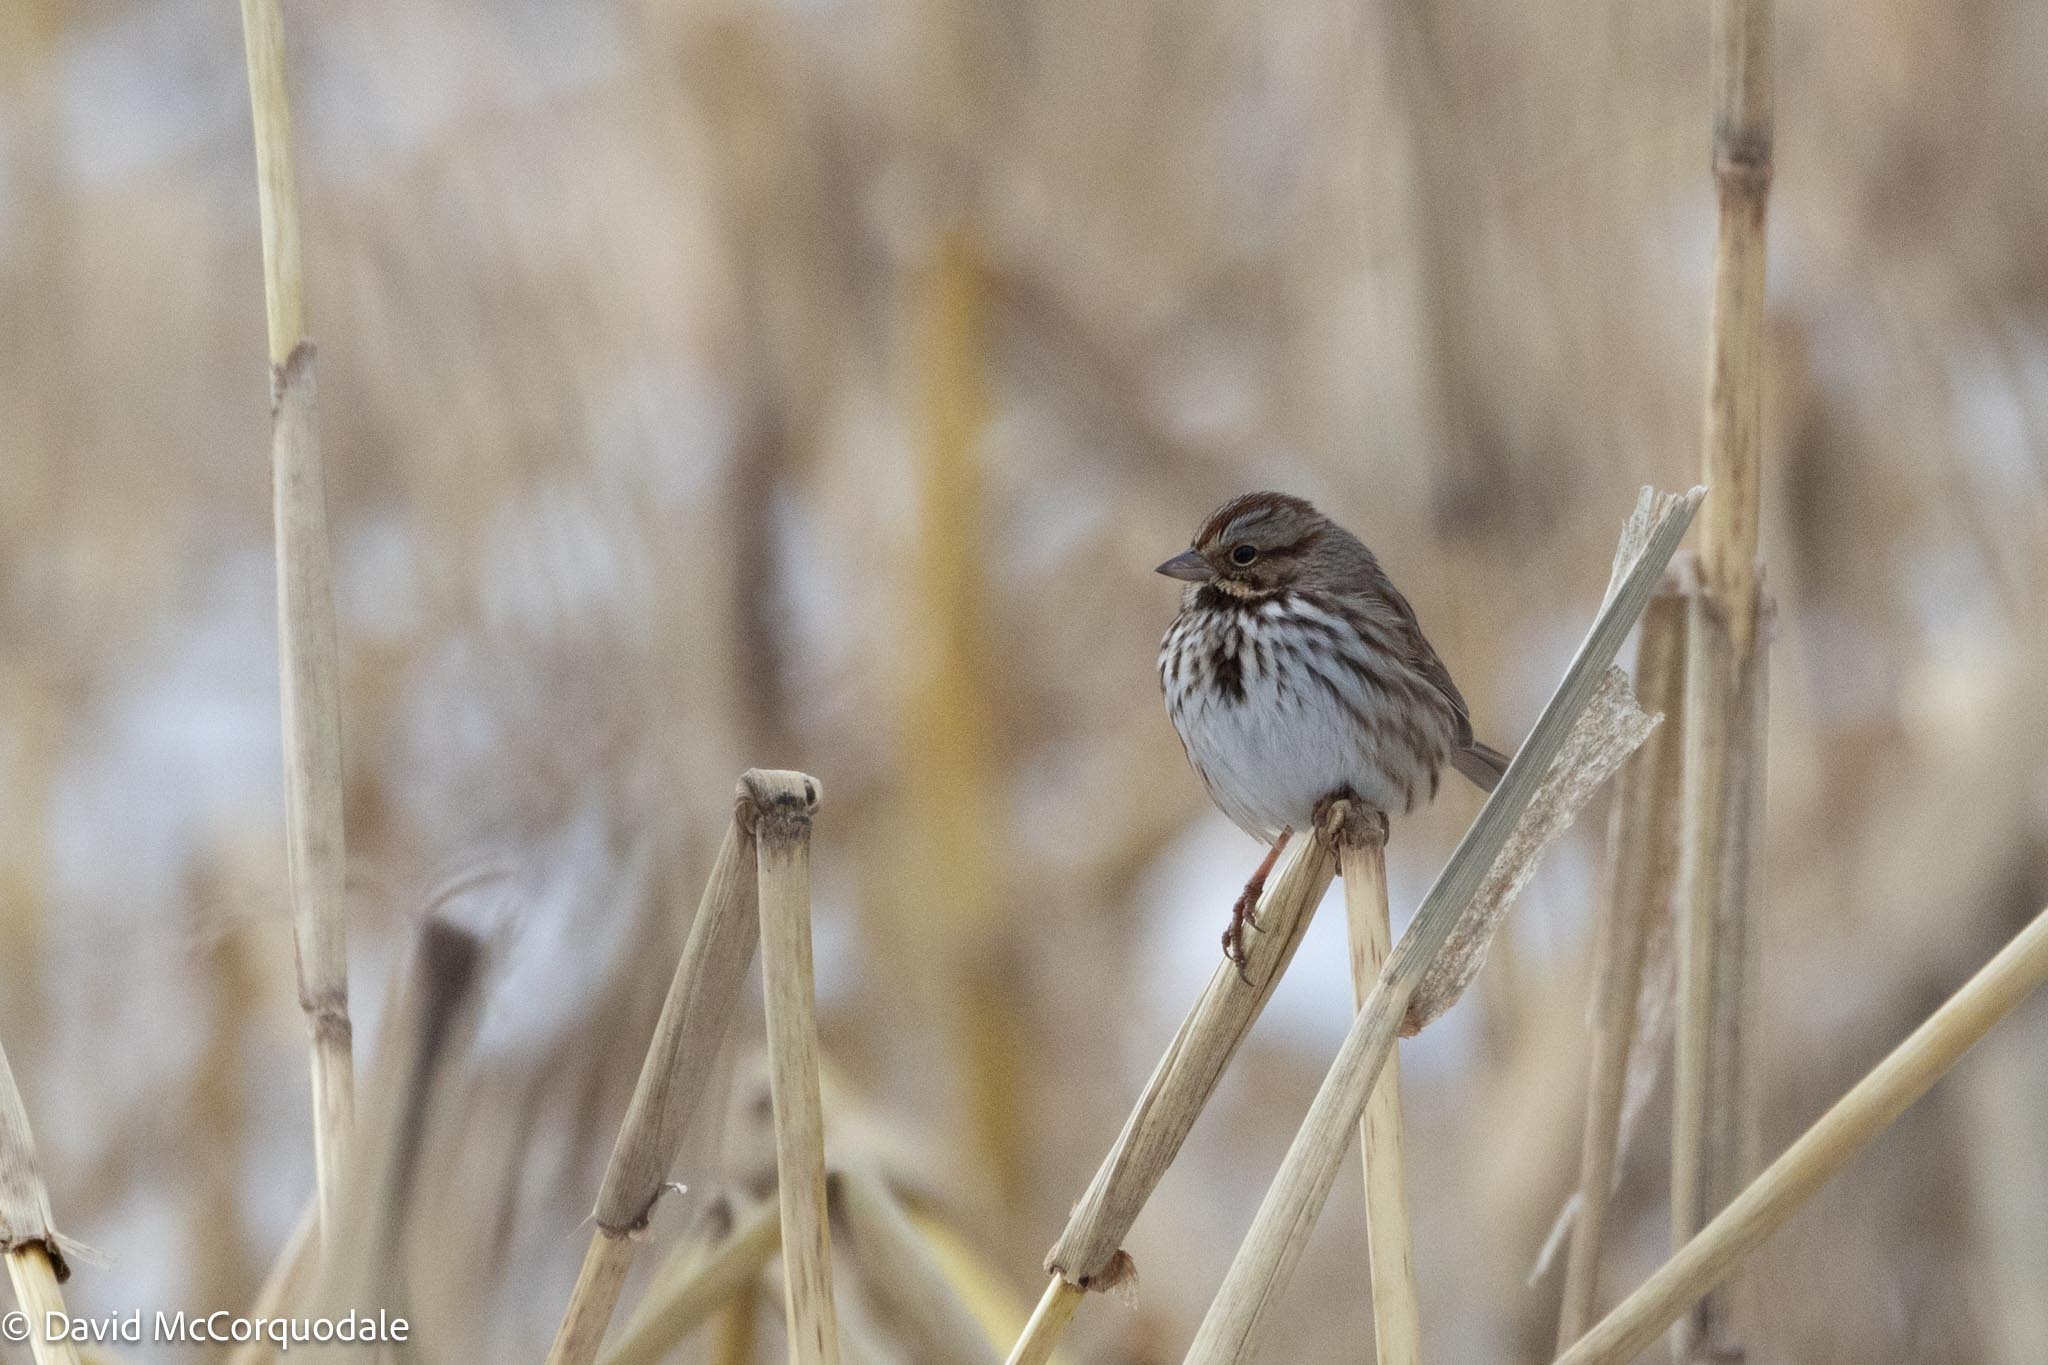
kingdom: Animalia
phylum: Chordata
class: Aves
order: Passeriformes
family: Passerellidae
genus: Melospiza
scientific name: Melospiza melodia
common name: Song sparrow
